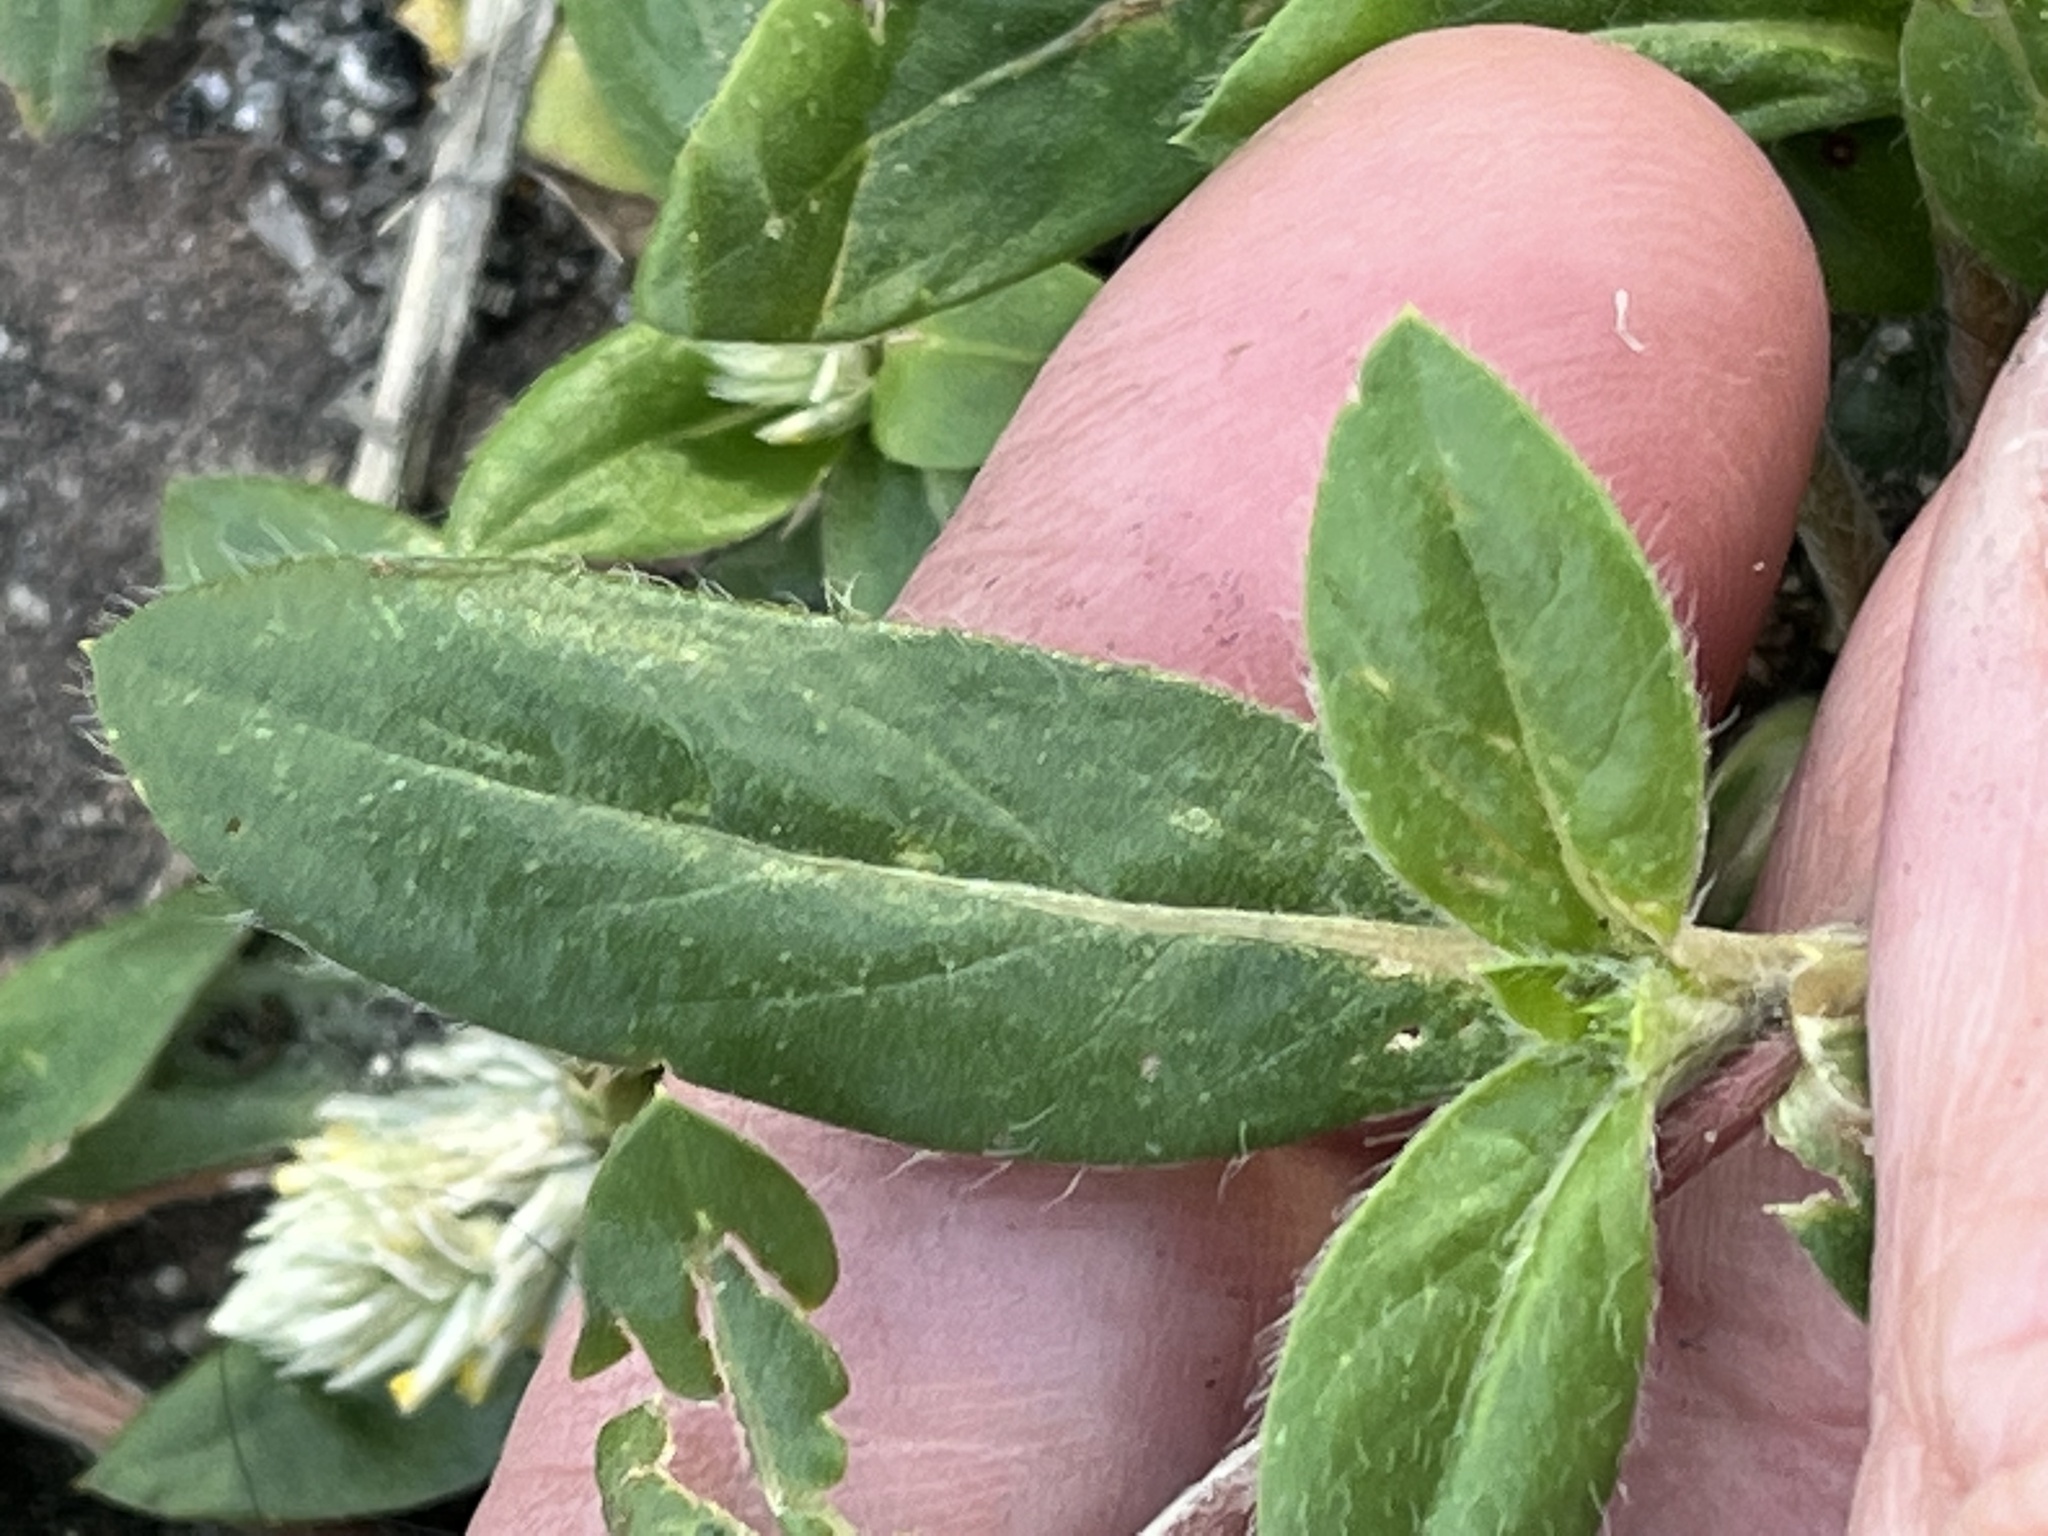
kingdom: Plantae
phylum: Tracheophyta
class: Magnoliopsida
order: Caryophyllales
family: Amaranthaceae
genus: Gomphrena
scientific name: Gomphrena serrata
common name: Arrasa con todo
